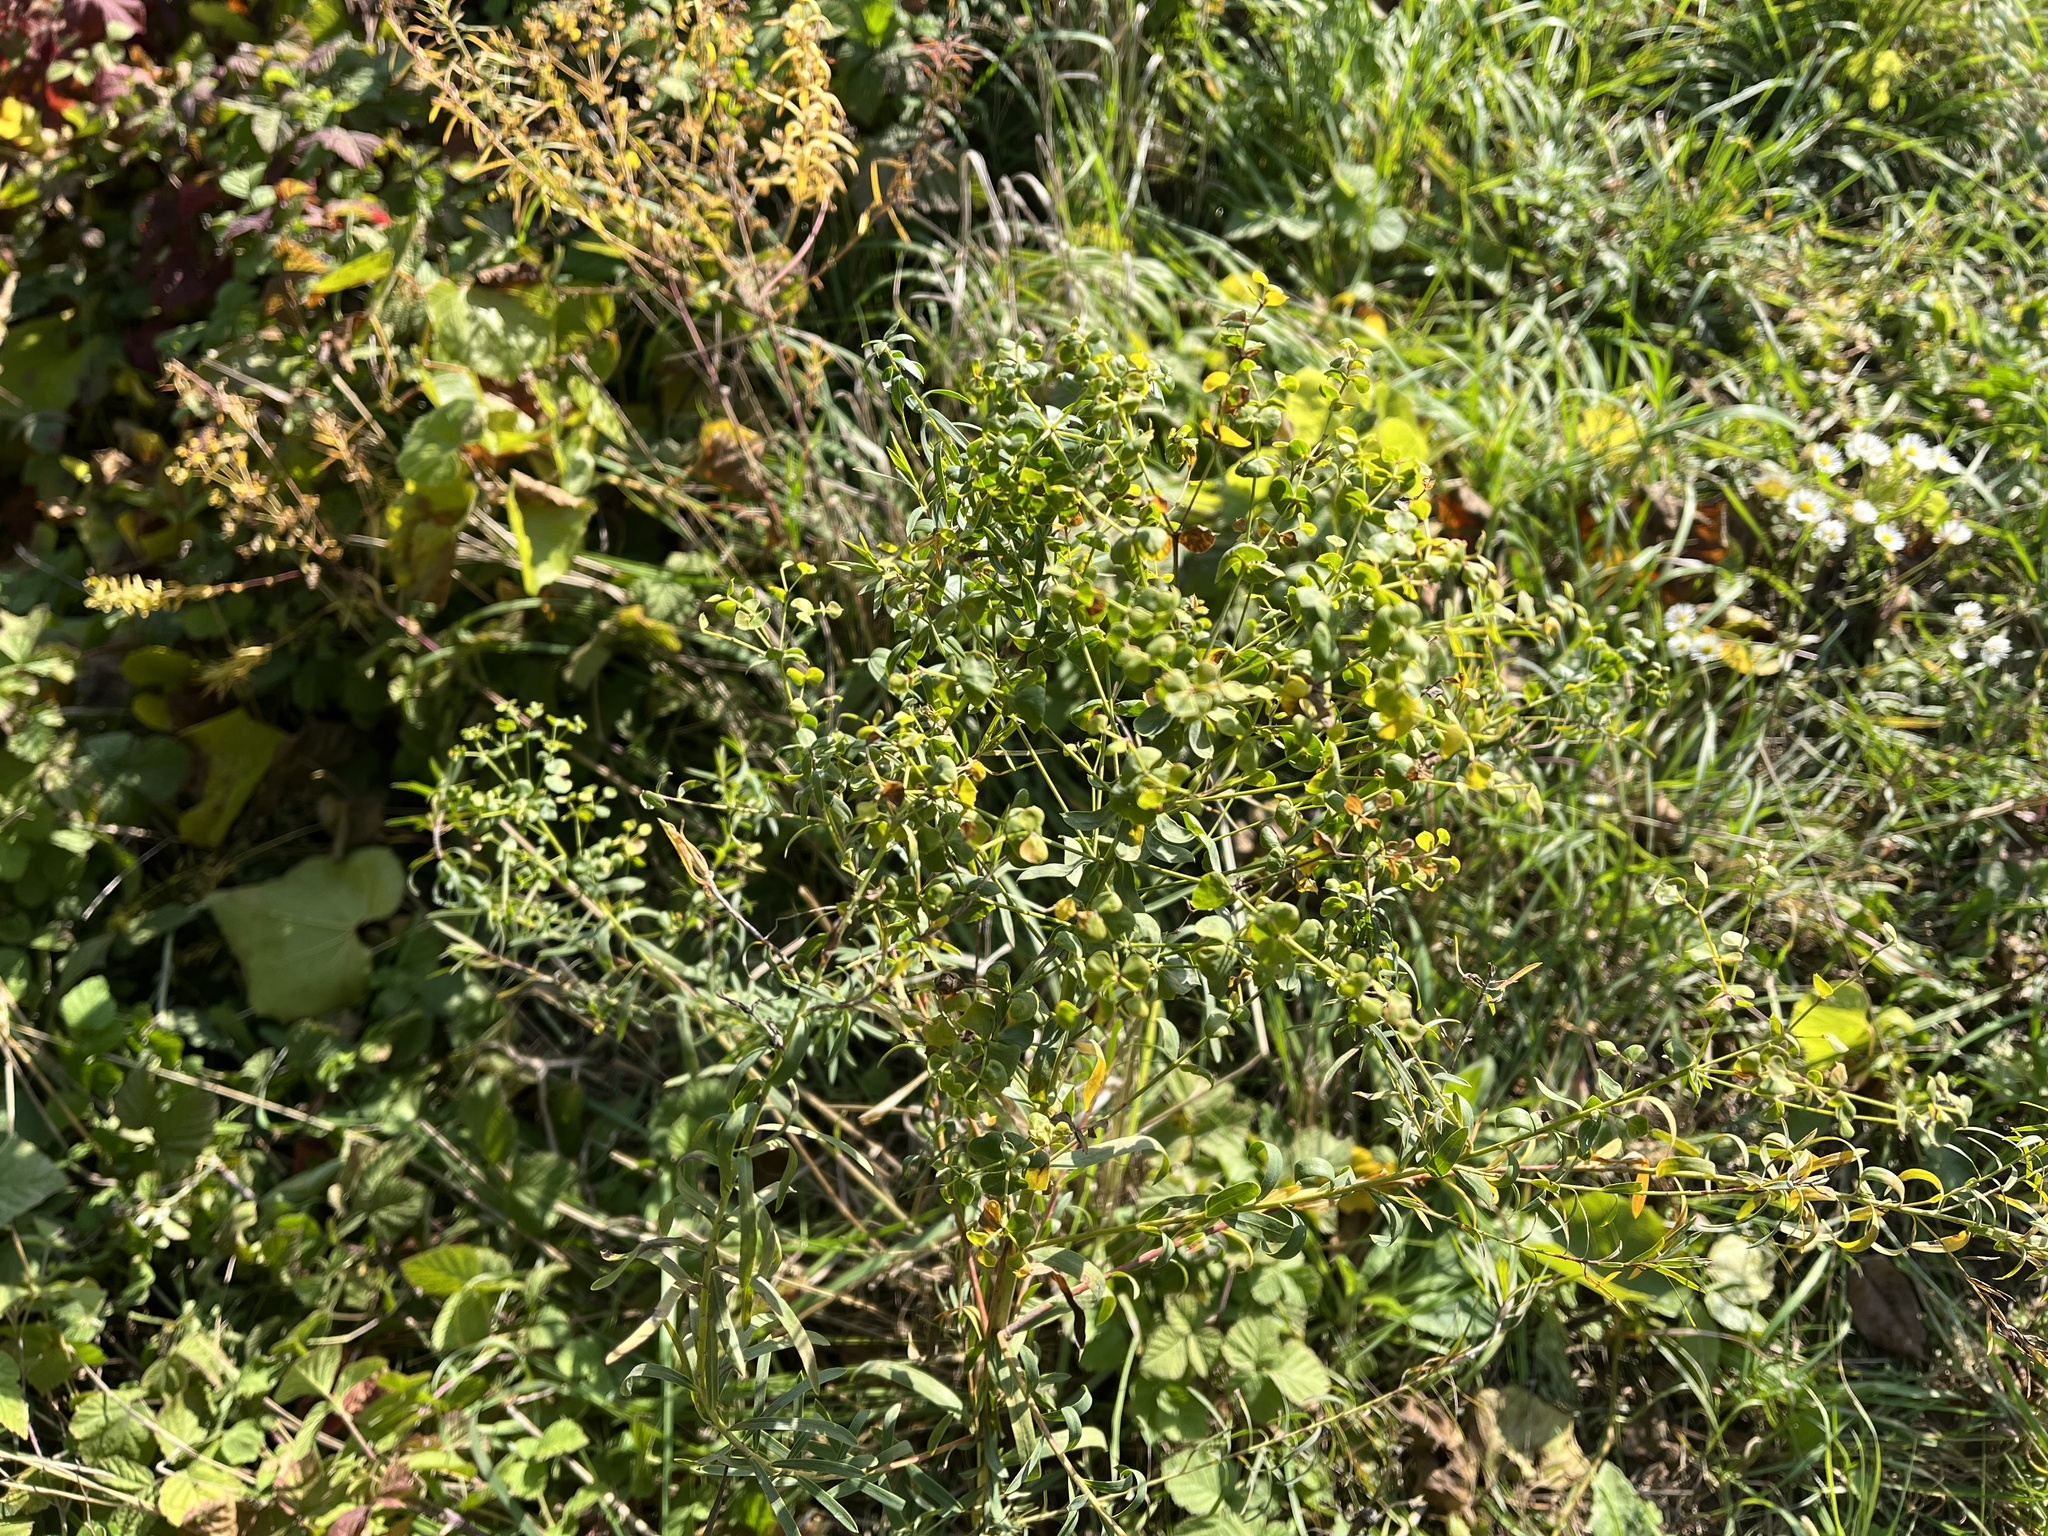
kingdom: Plantae
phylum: Tracheophyta
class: Magnoliopsida
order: Malpighiales
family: Euphorbiaceae
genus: Euphorbia
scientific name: Euphorbia virgata
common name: Leafy spurge
